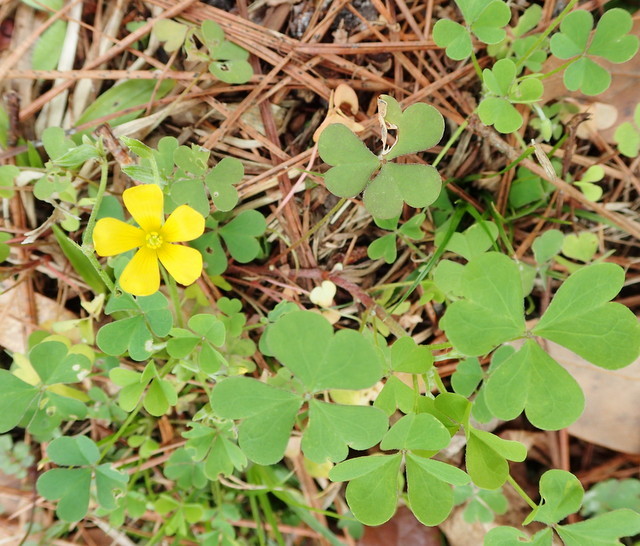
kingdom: Plantae
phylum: Tracheophyta
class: Magnoliopsida
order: Oxalidales
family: Oxalidaceae
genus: Oxalis
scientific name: Oxalis corniculata
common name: Procumbent yellow-sorrel
